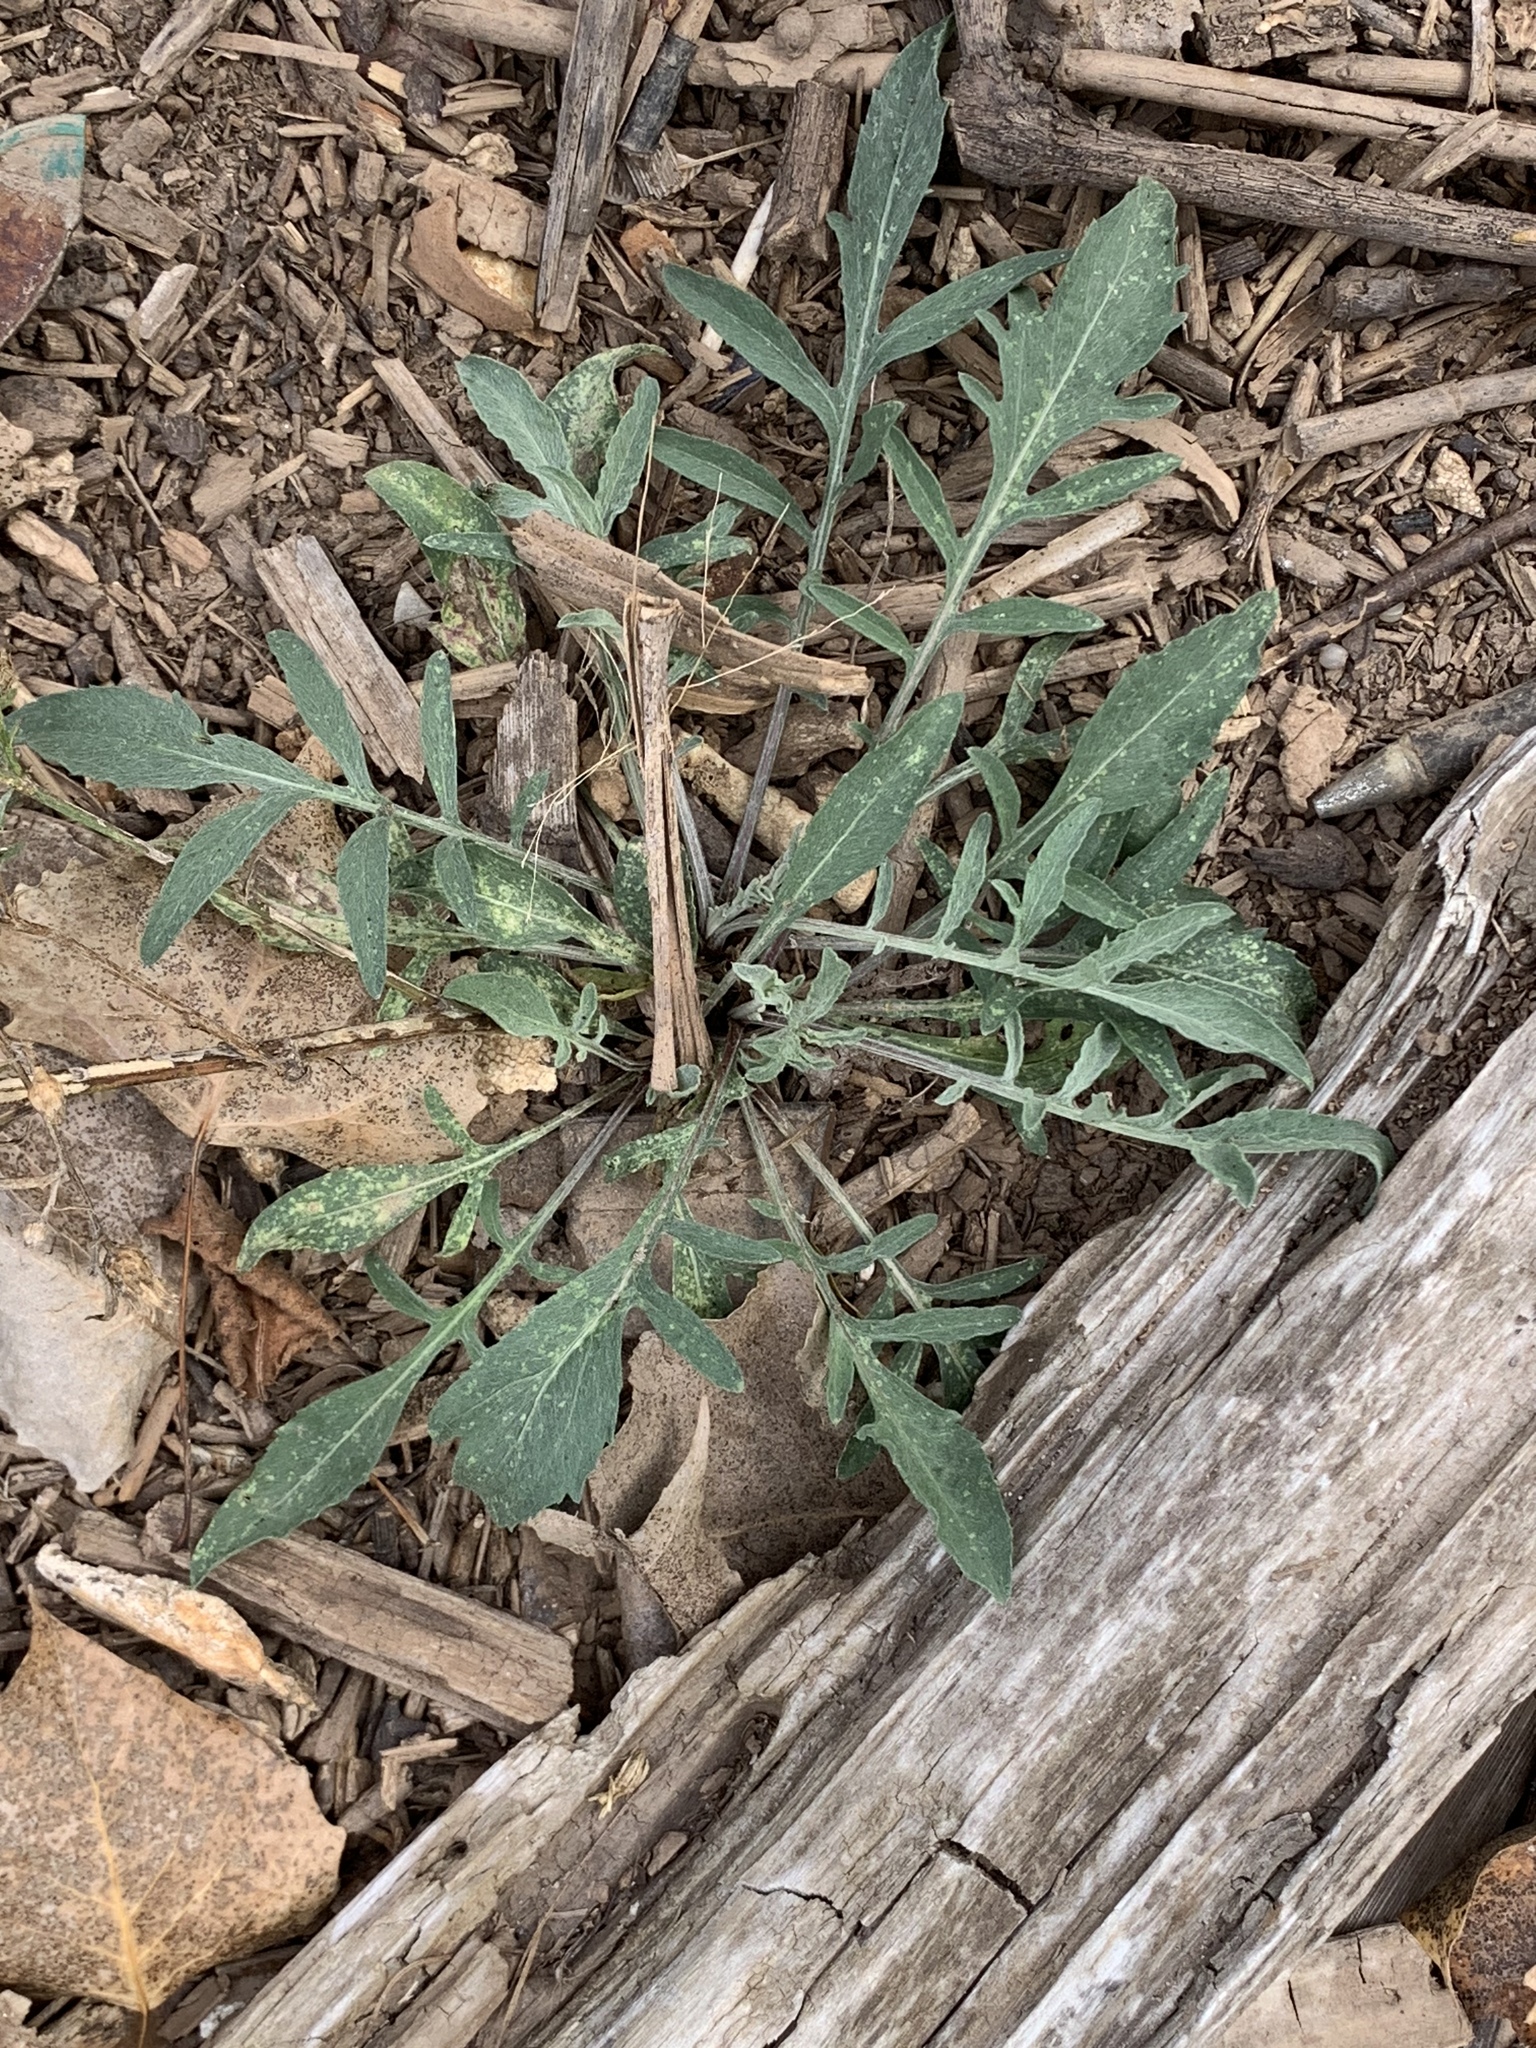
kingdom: Plantae
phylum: Tracheophyta
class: Magnoliopsida
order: Asterales
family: Asteraceae
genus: Centaurea
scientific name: Centaurea stoebe
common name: Spotted knapweed
